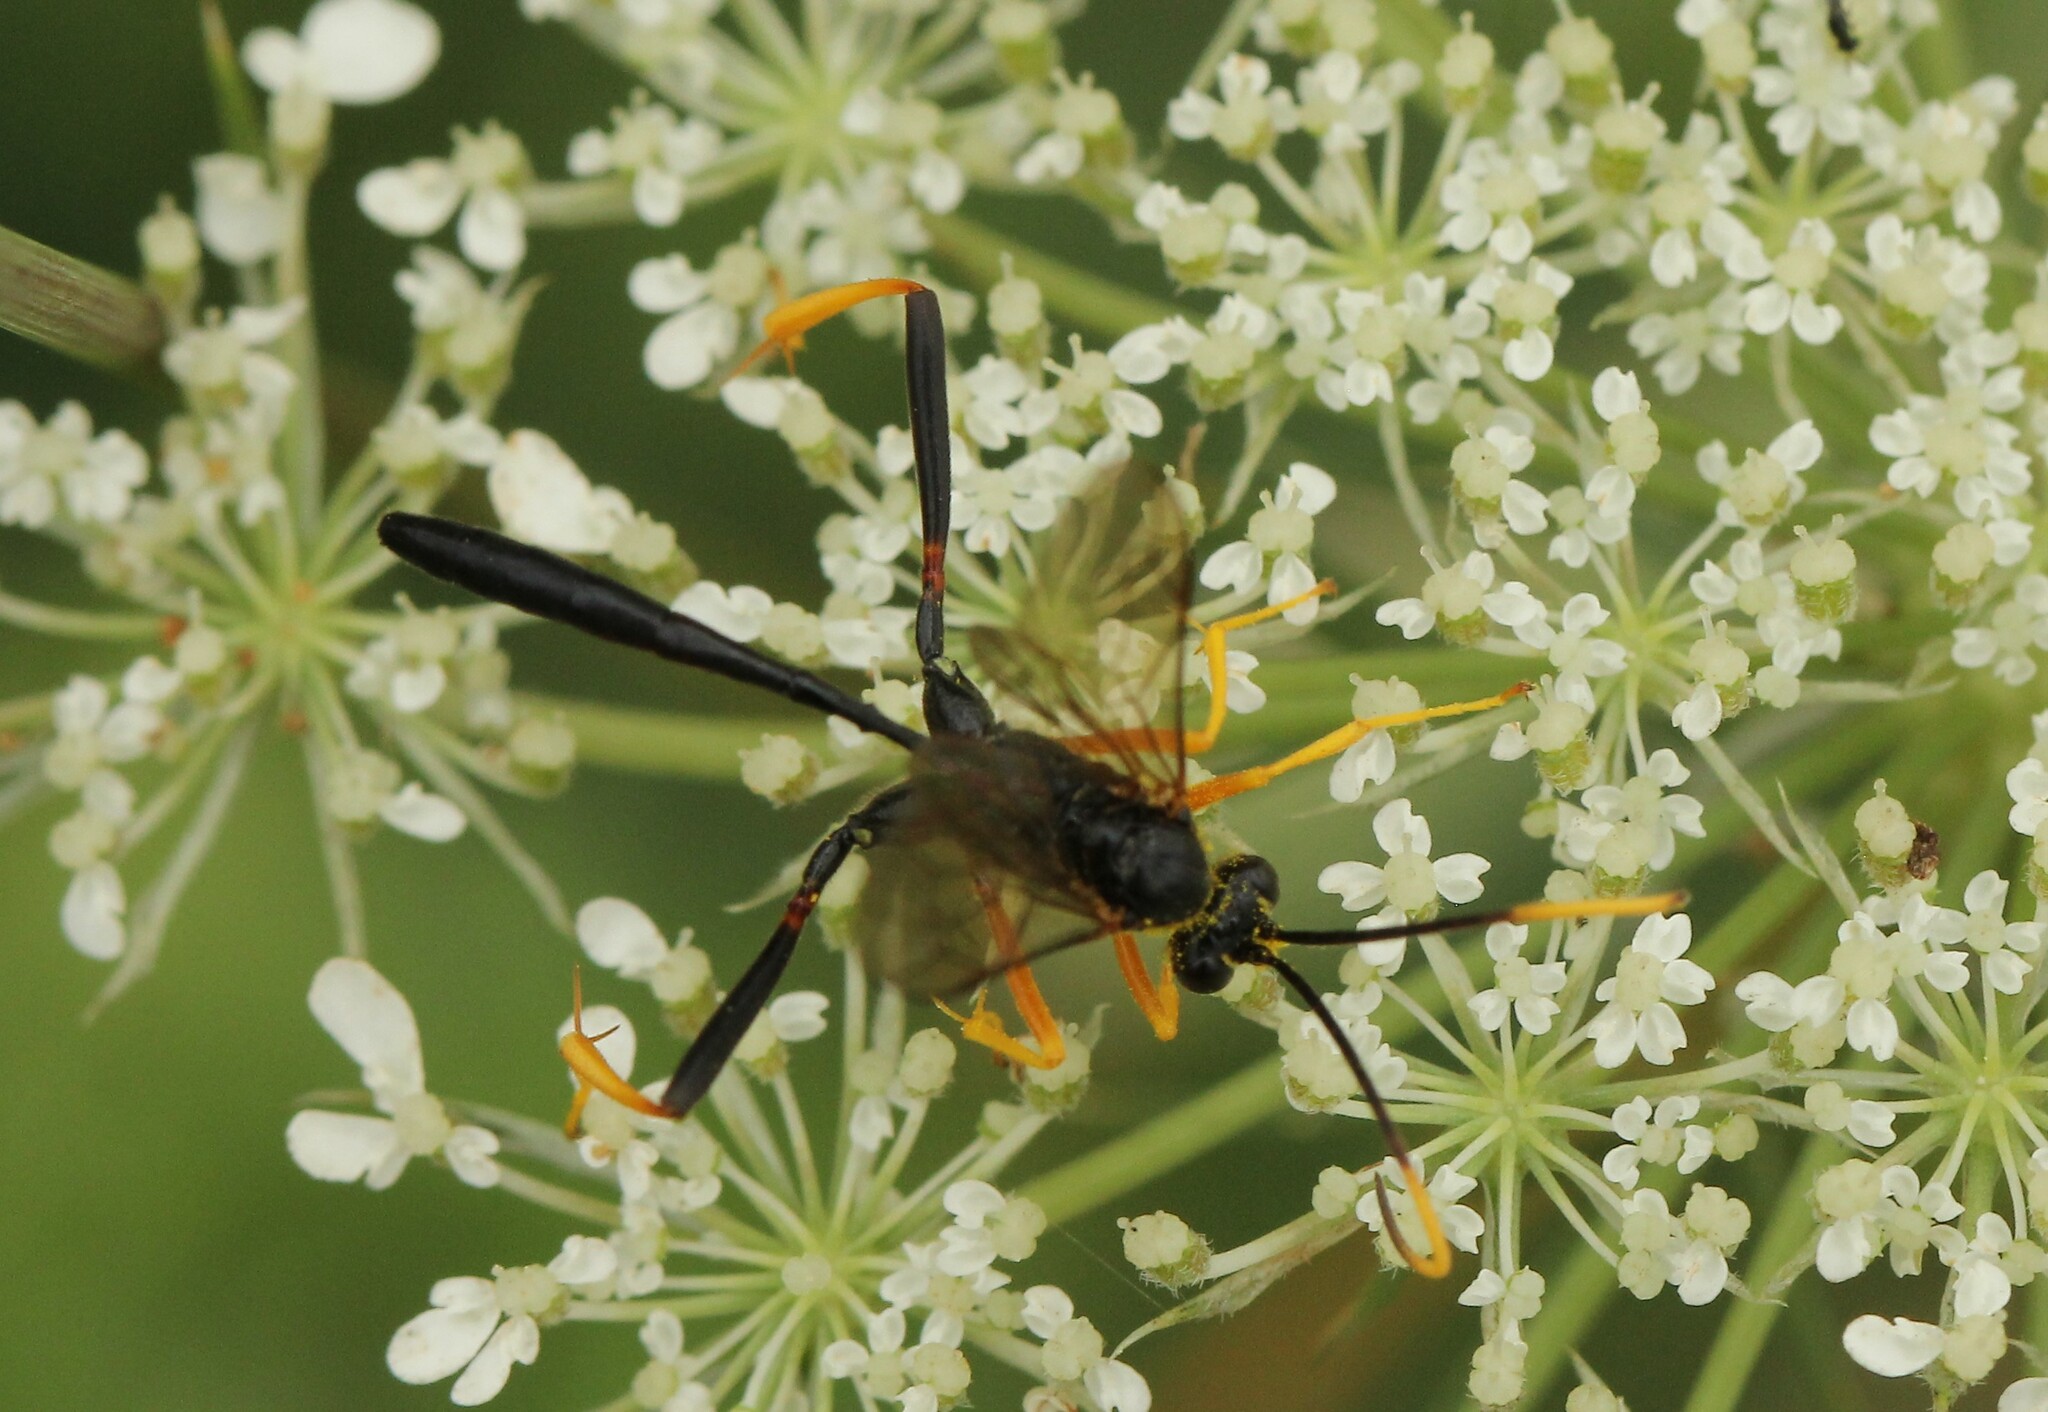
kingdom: Animalia
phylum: Arthropoda
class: Insecta
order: Hymenoptera
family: Ichneumonidae
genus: Acroricnus
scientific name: Acroricnus stylator
